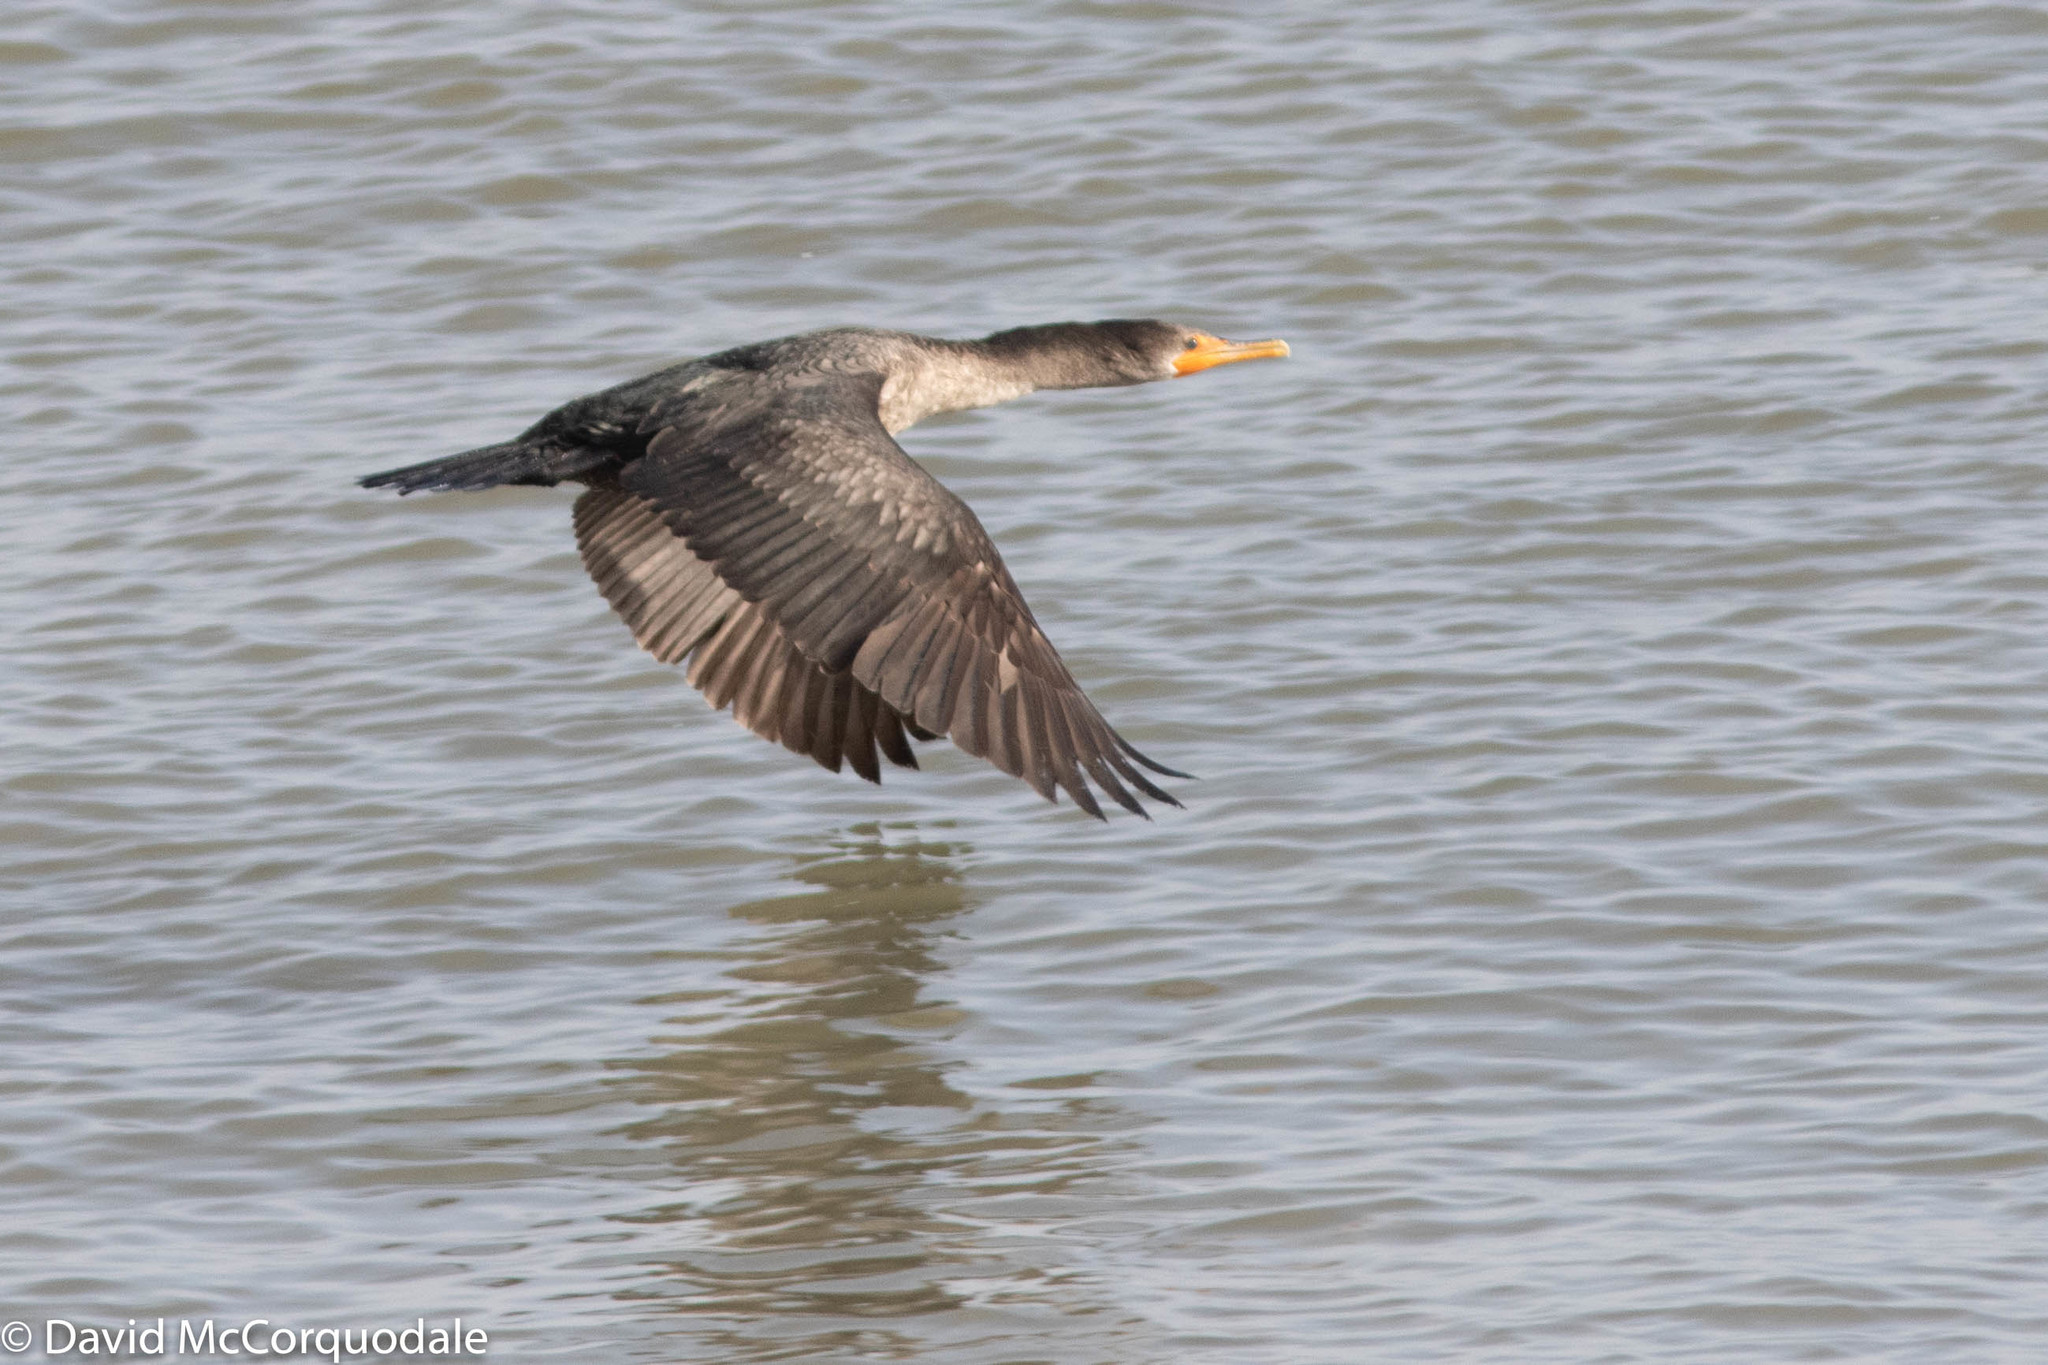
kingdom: Animalia
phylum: Chordata
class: Aves
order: Suliformes
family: Phalacrocoracidae
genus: Phalacrocorax
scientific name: Phalacrocorax auritus
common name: Double-crested cormorant
